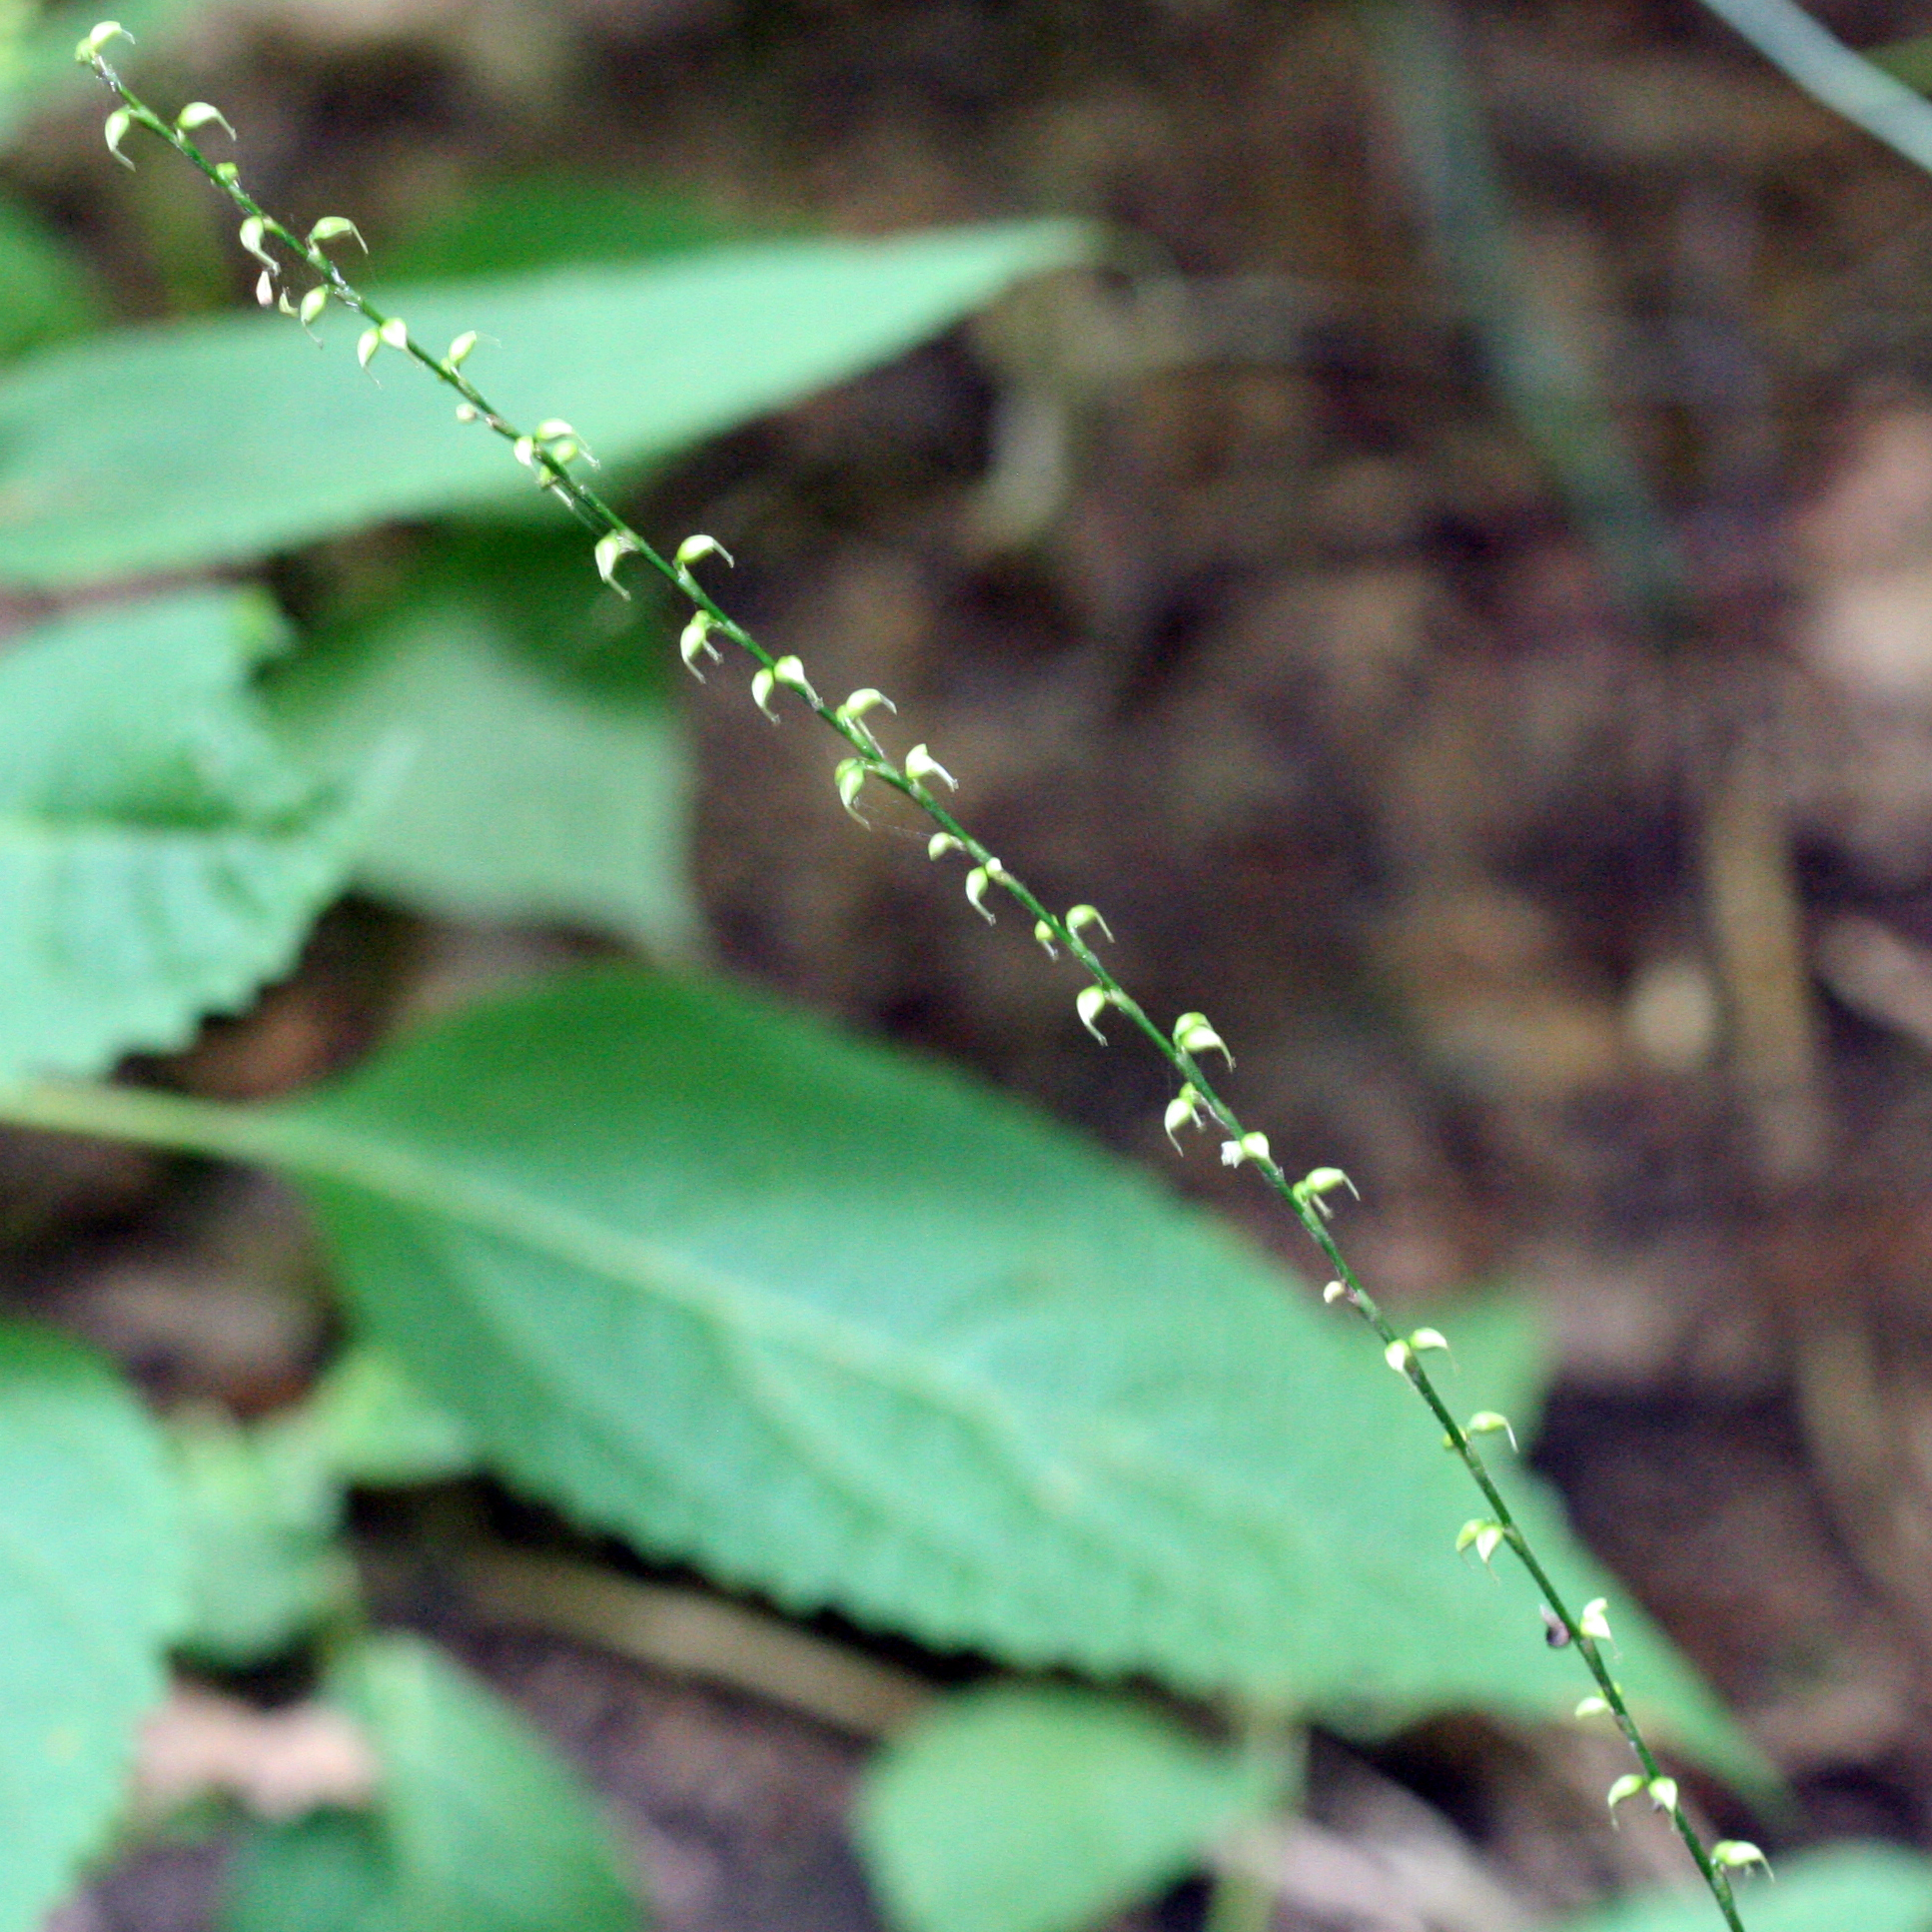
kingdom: Plantae
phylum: Tracheophyta
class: Magnoliopsida
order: Caryophyllales
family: Polygonaceae
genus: Persicaria
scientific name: Persicaria virginiana
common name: Jumpseed
